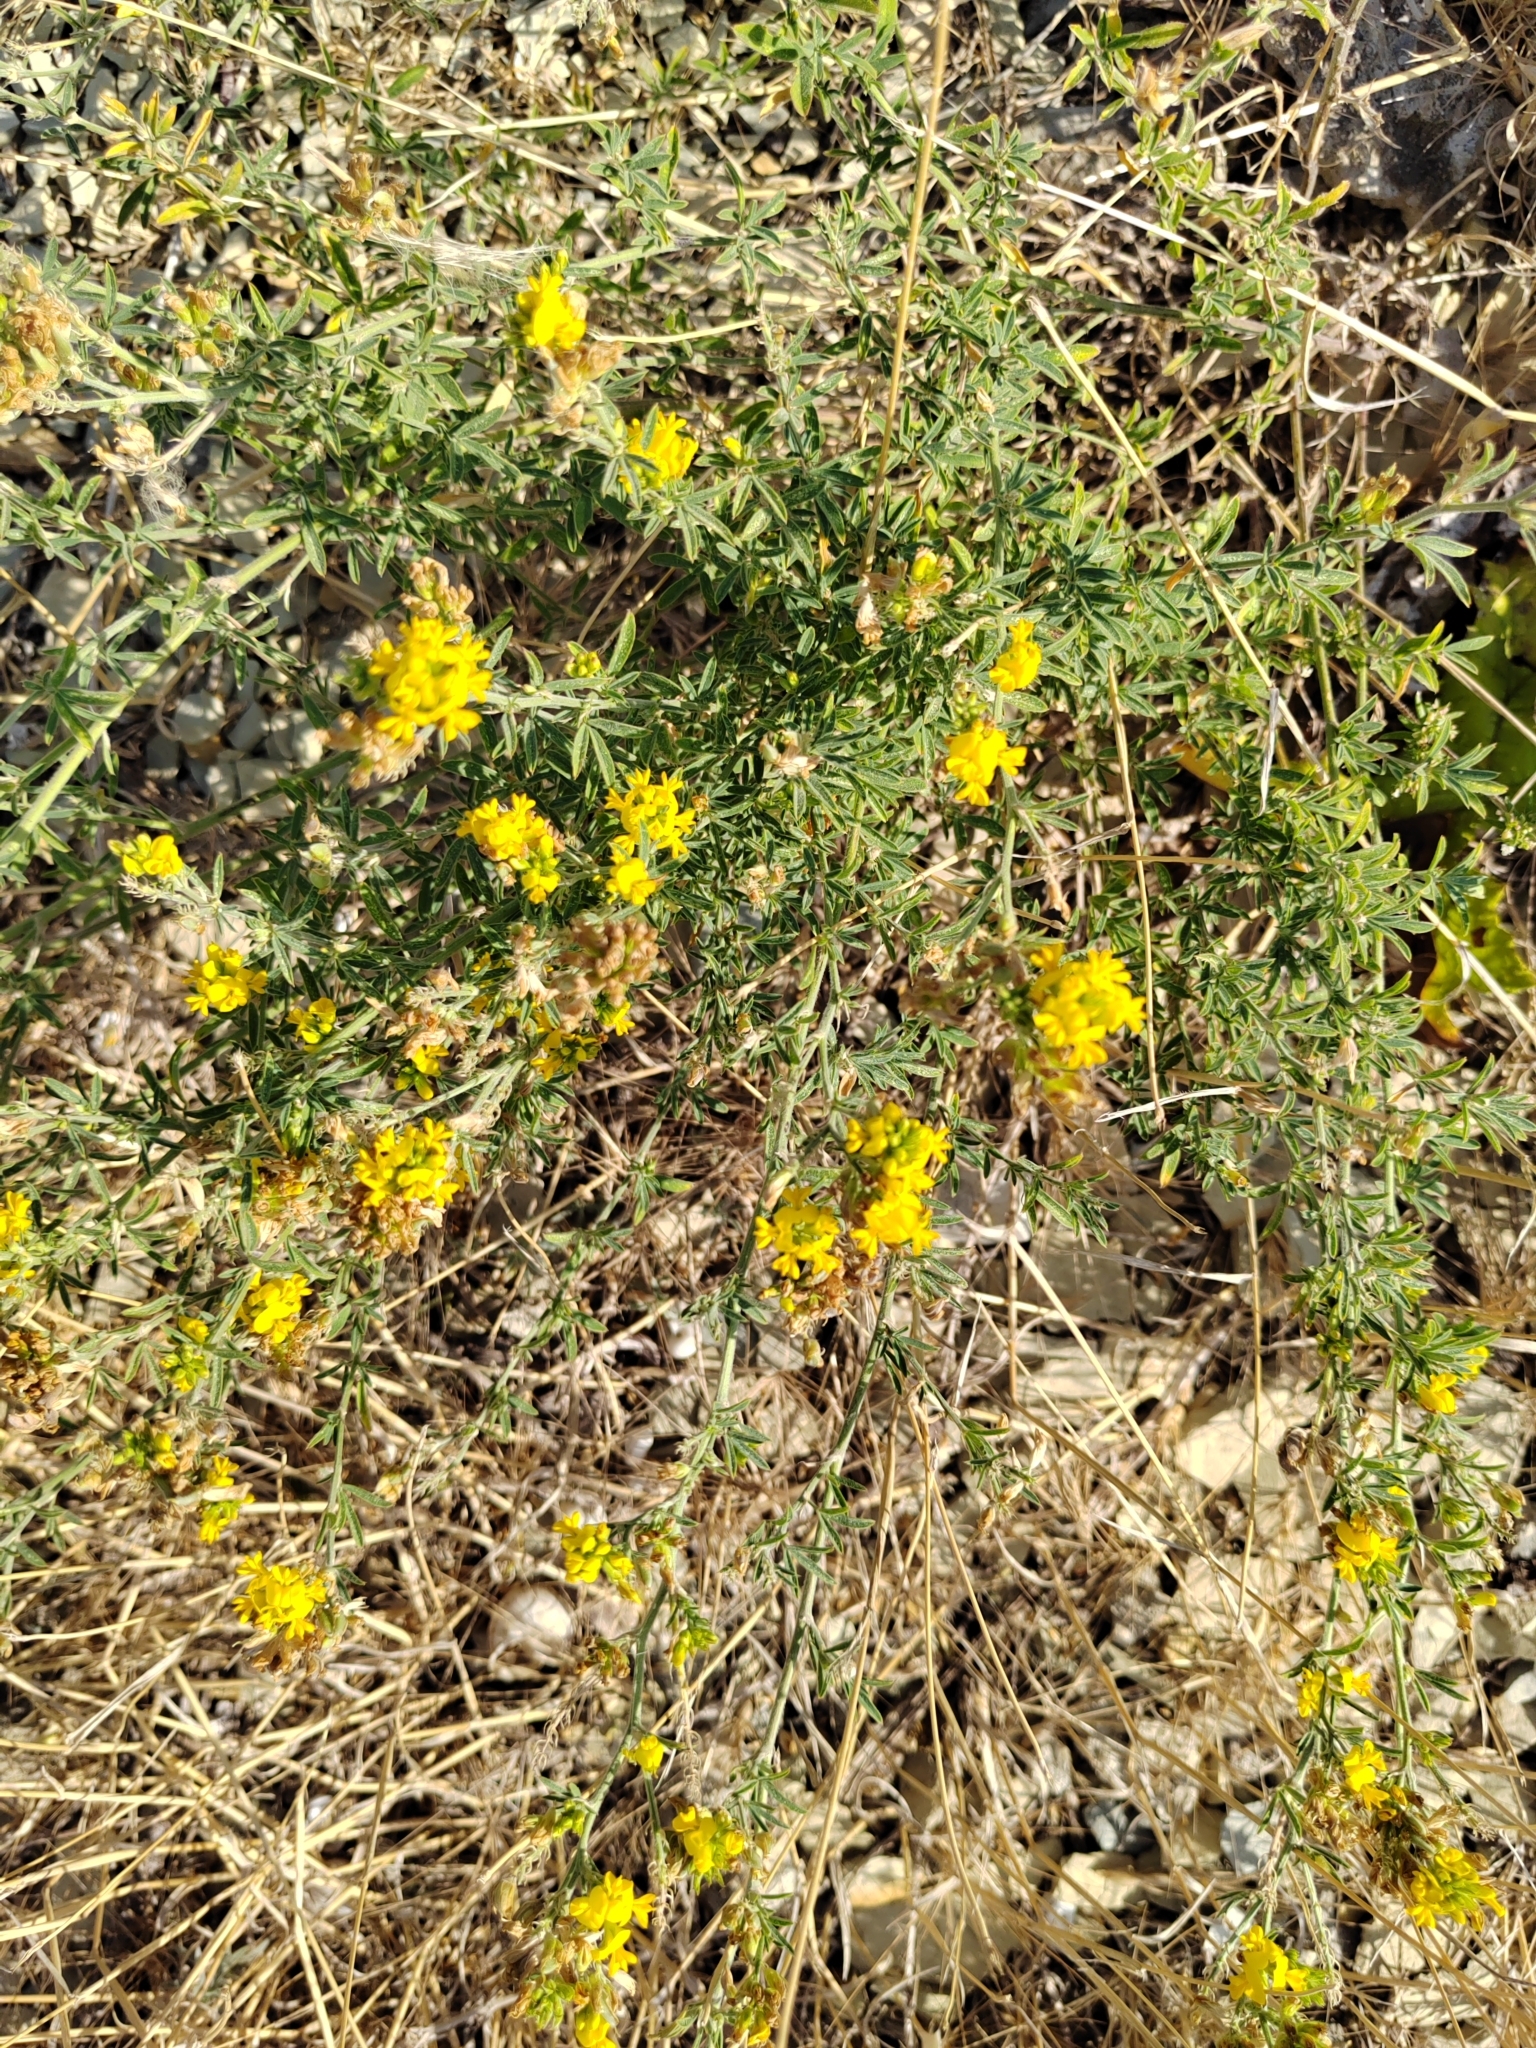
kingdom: Plantae
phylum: Tracheophyta
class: Magnoliopsida
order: Fabales
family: Fabaceae
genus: Medicago
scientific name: Medicago falcata
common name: Sickle medick
